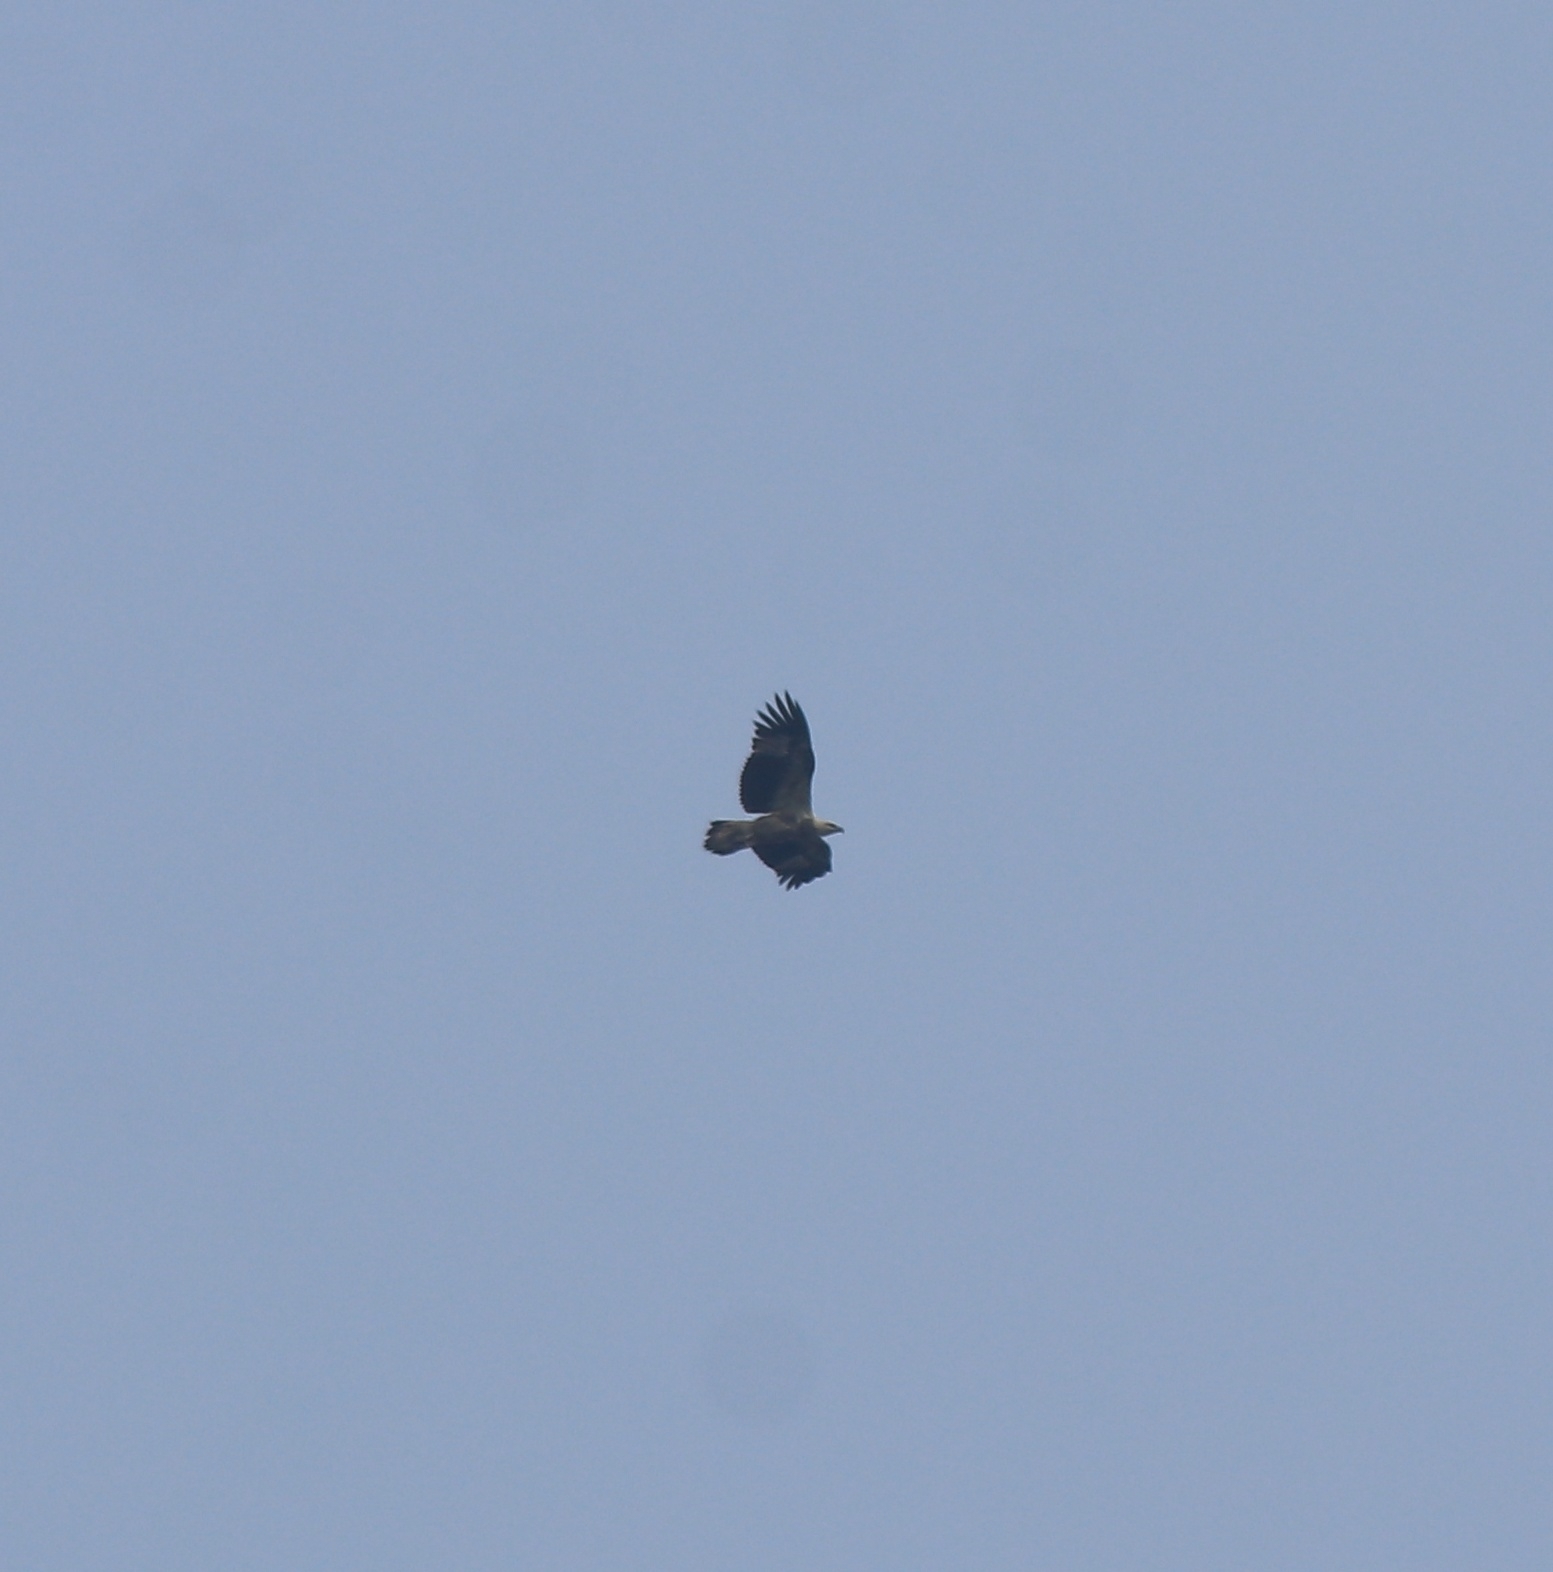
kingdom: Animalia
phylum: Chordata
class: Aves
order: Accipitriformes
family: Accipitridae
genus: Haliaeetus
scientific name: Haliaeetus leucogaster
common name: White-bellied sea eagle
